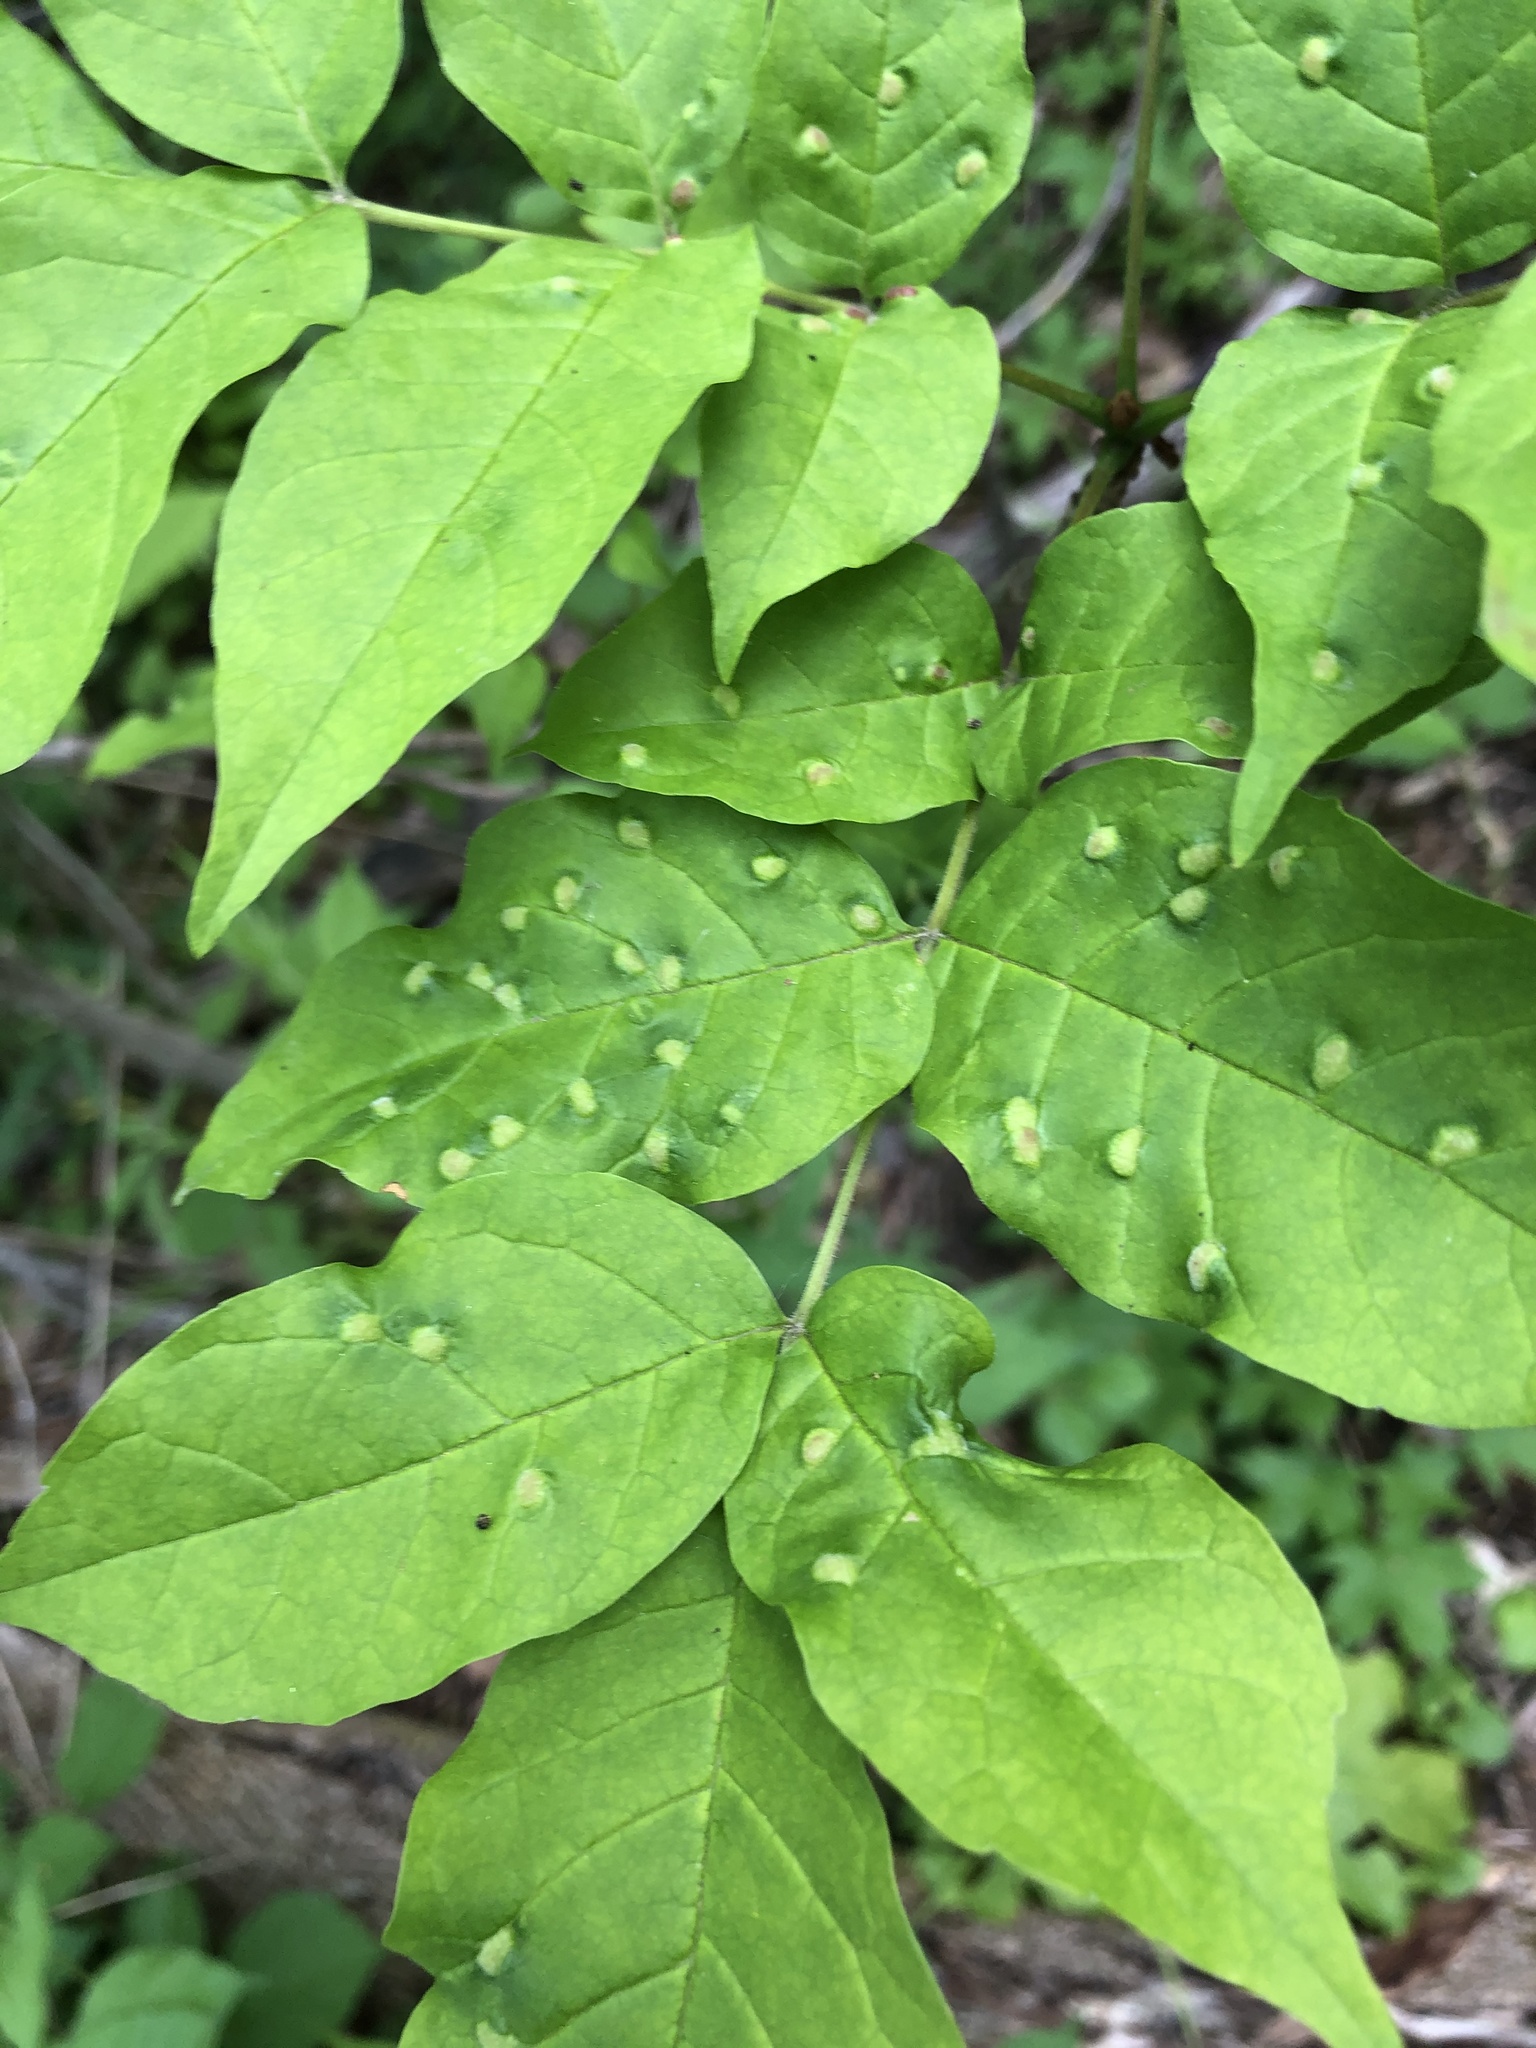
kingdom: Animalia
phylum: Arthropoda
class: Arachnida
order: Trombidiformes
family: Eriophyidae
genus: Aceria
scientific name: Aceria fraxinicola
